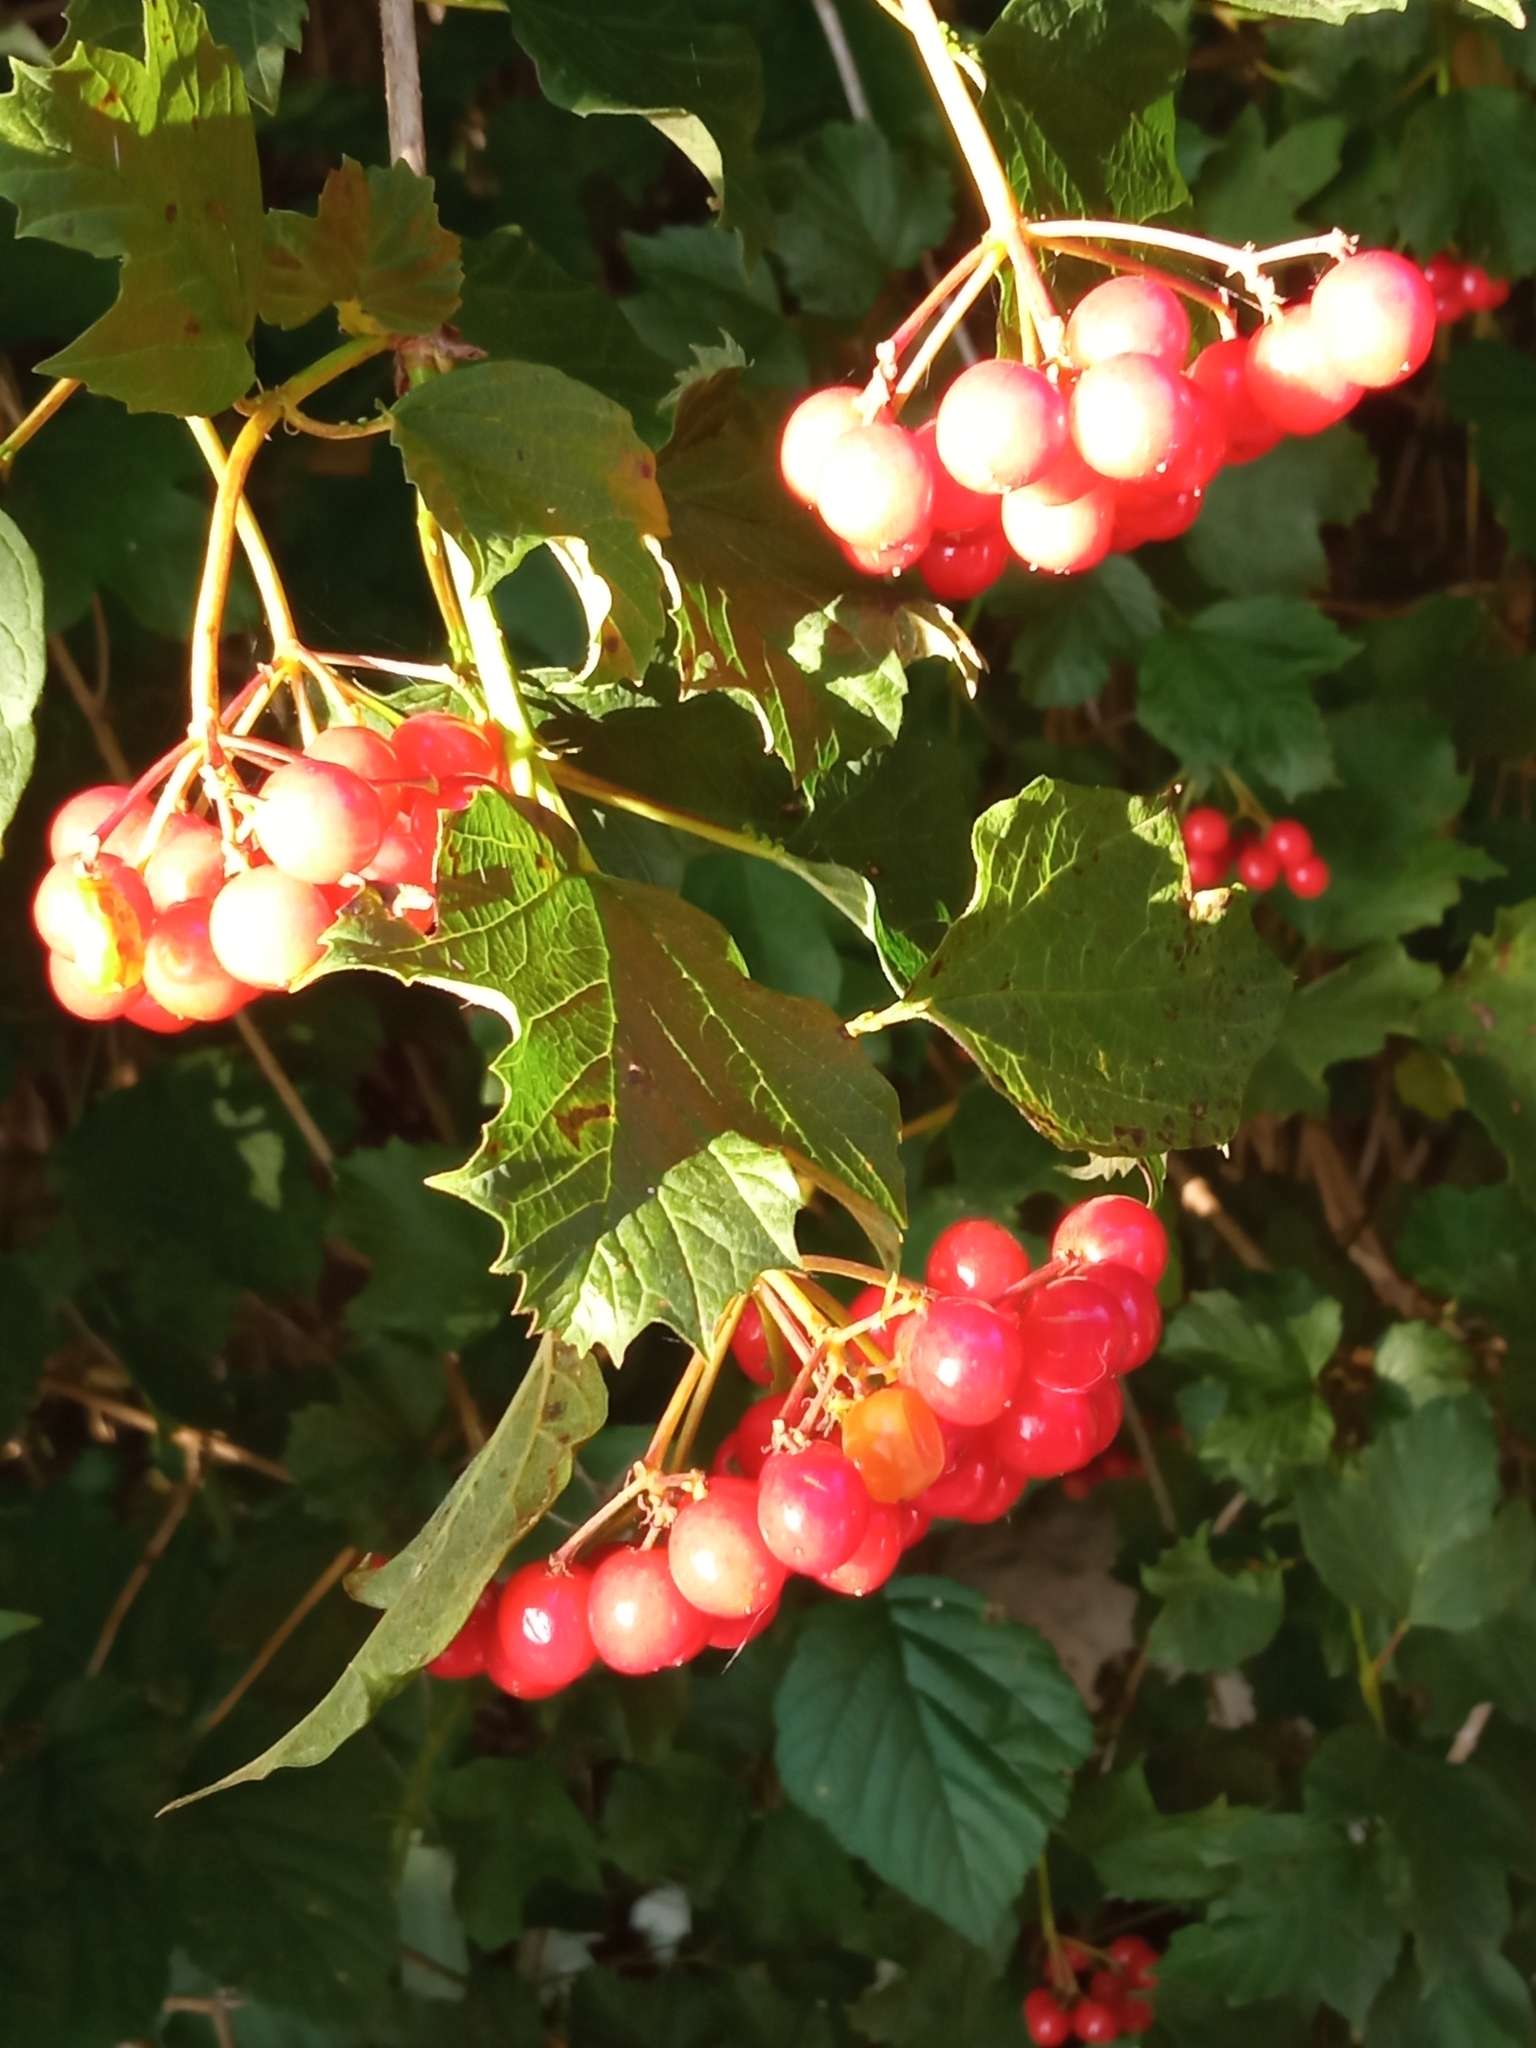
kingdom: Plantae
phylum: Tracheophyta
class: Magnoliopsida
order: Dipsacales
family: Viburnaceae
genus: Viburnum
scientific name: Viburnum opulus
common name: Guelder-rose
